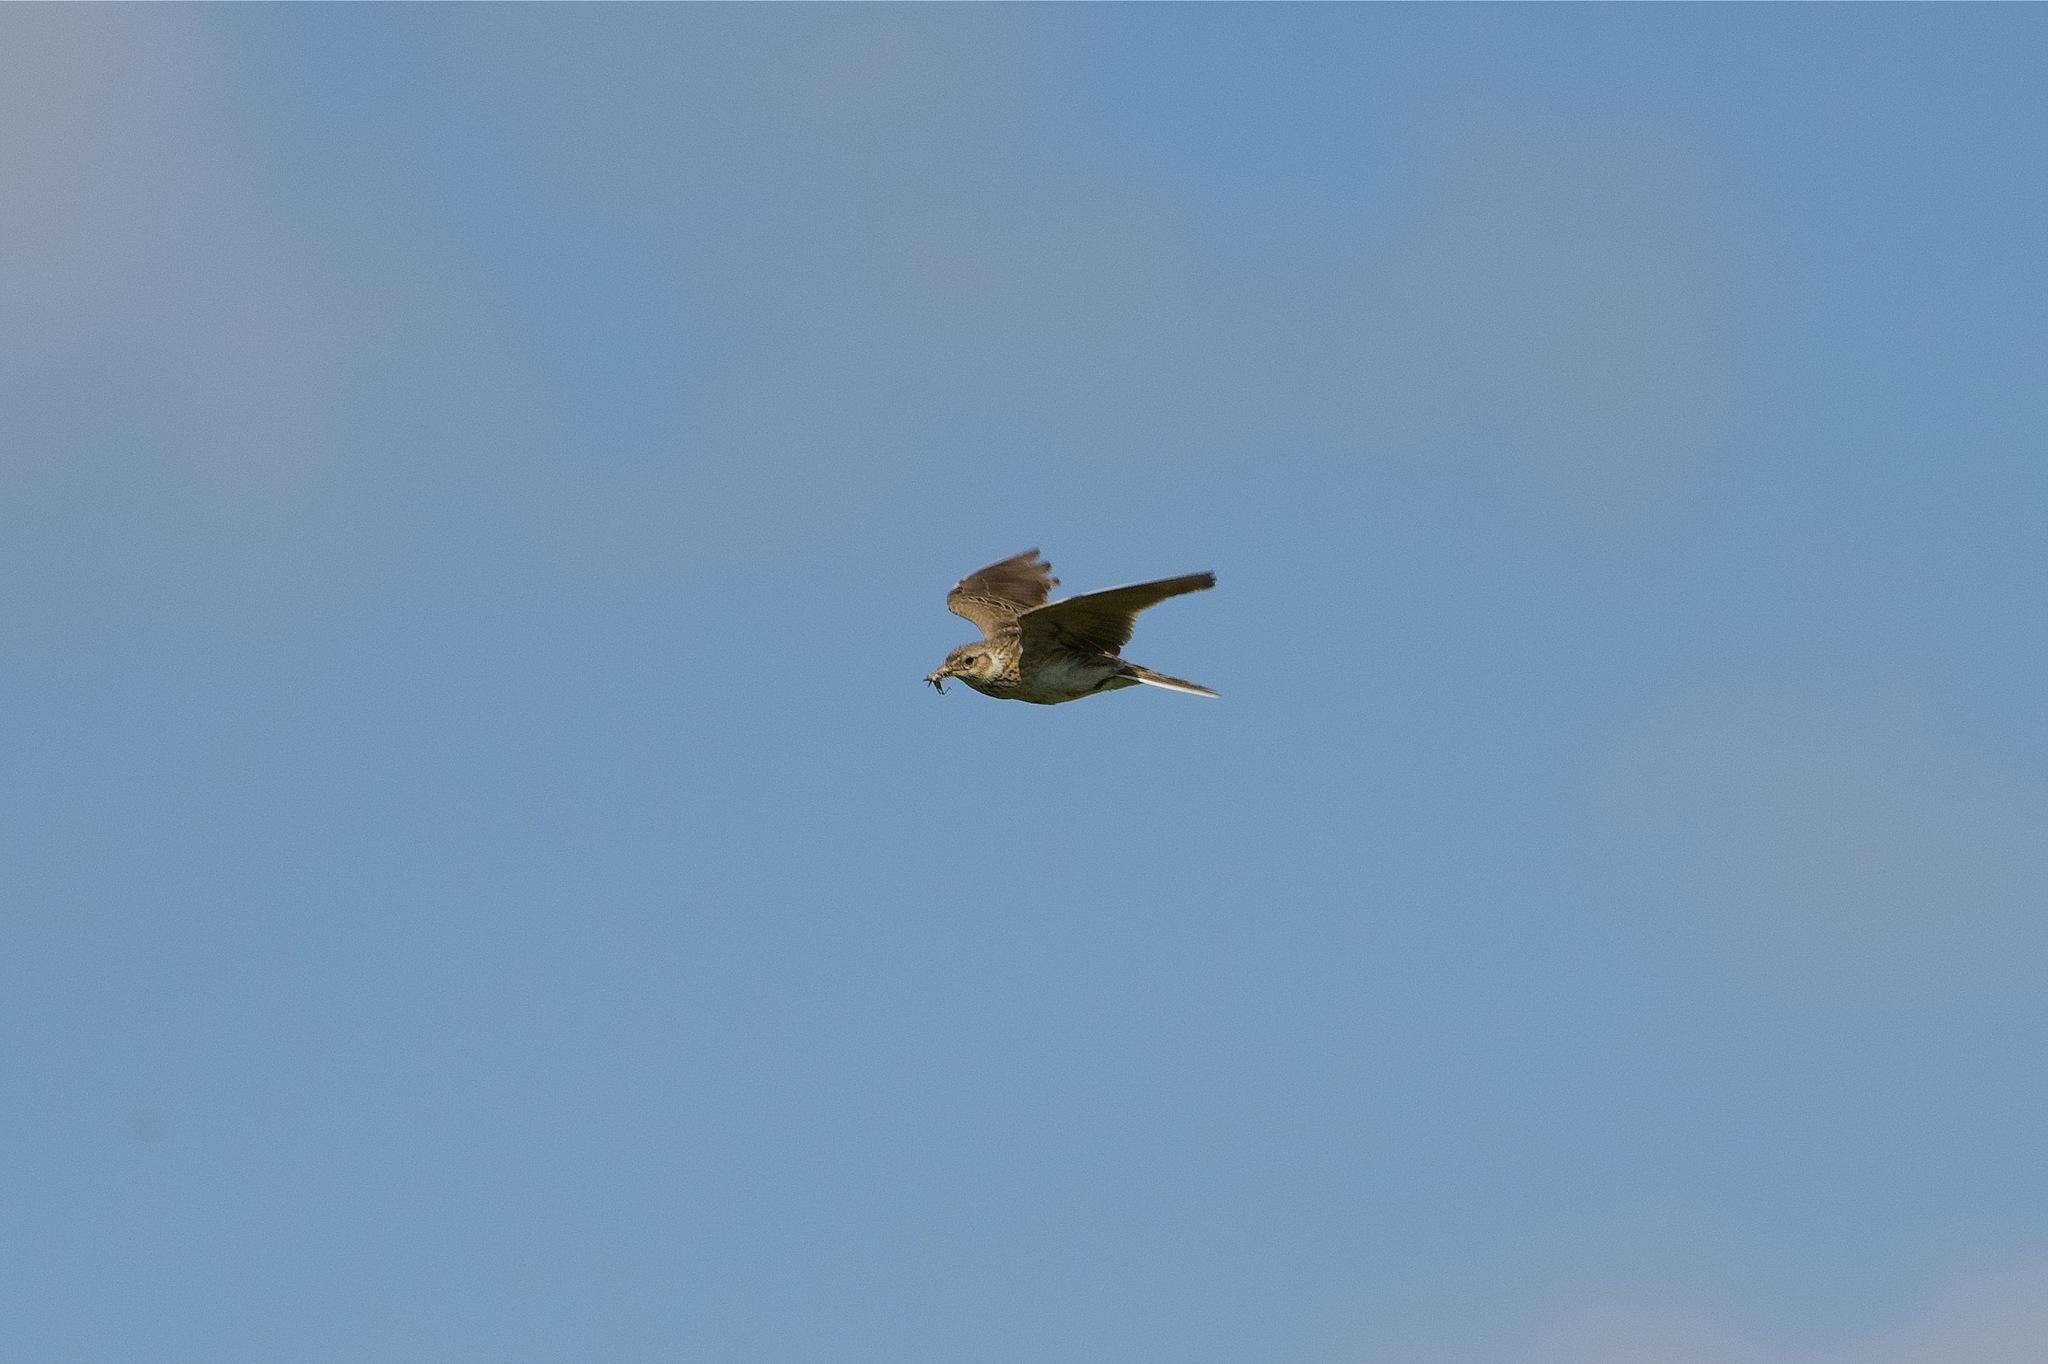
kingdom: Animalia
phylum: Chordata
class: Aves
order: Passeriformes
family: Alaudidae
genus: Alauda
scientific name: Alauda arvensis
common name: Eurasian skylark
